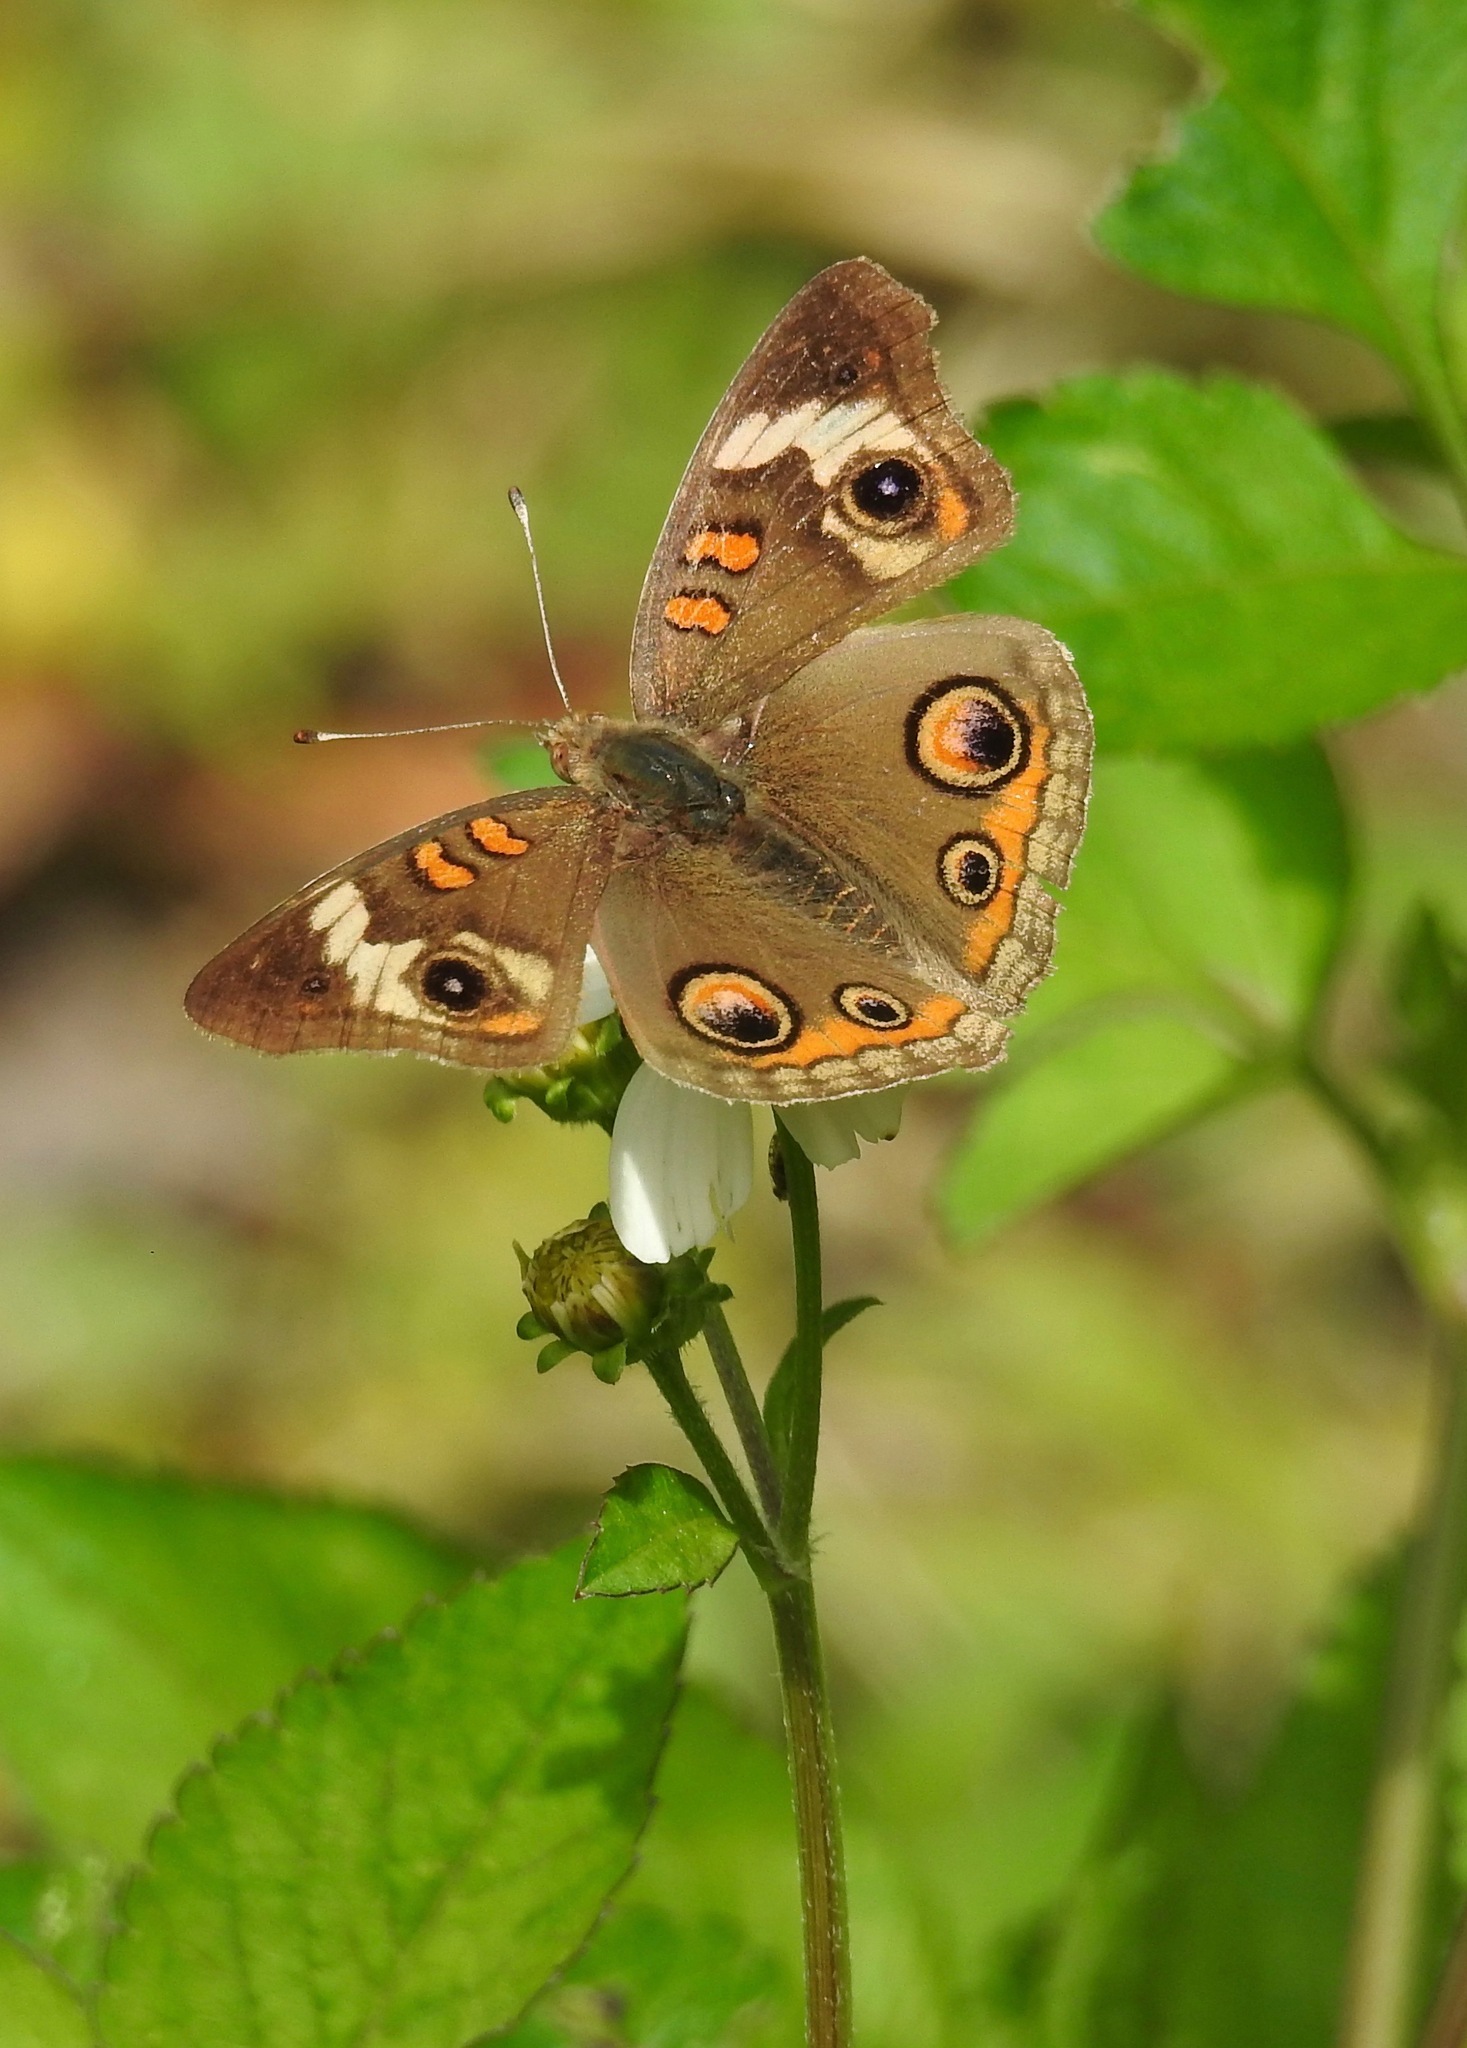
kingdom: Animalia
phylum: Arthropoda
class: Insecta
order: Lepidoptera
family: Nymphalidae
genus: Junonia
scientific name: Junonia coenia
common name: Common buckeye
